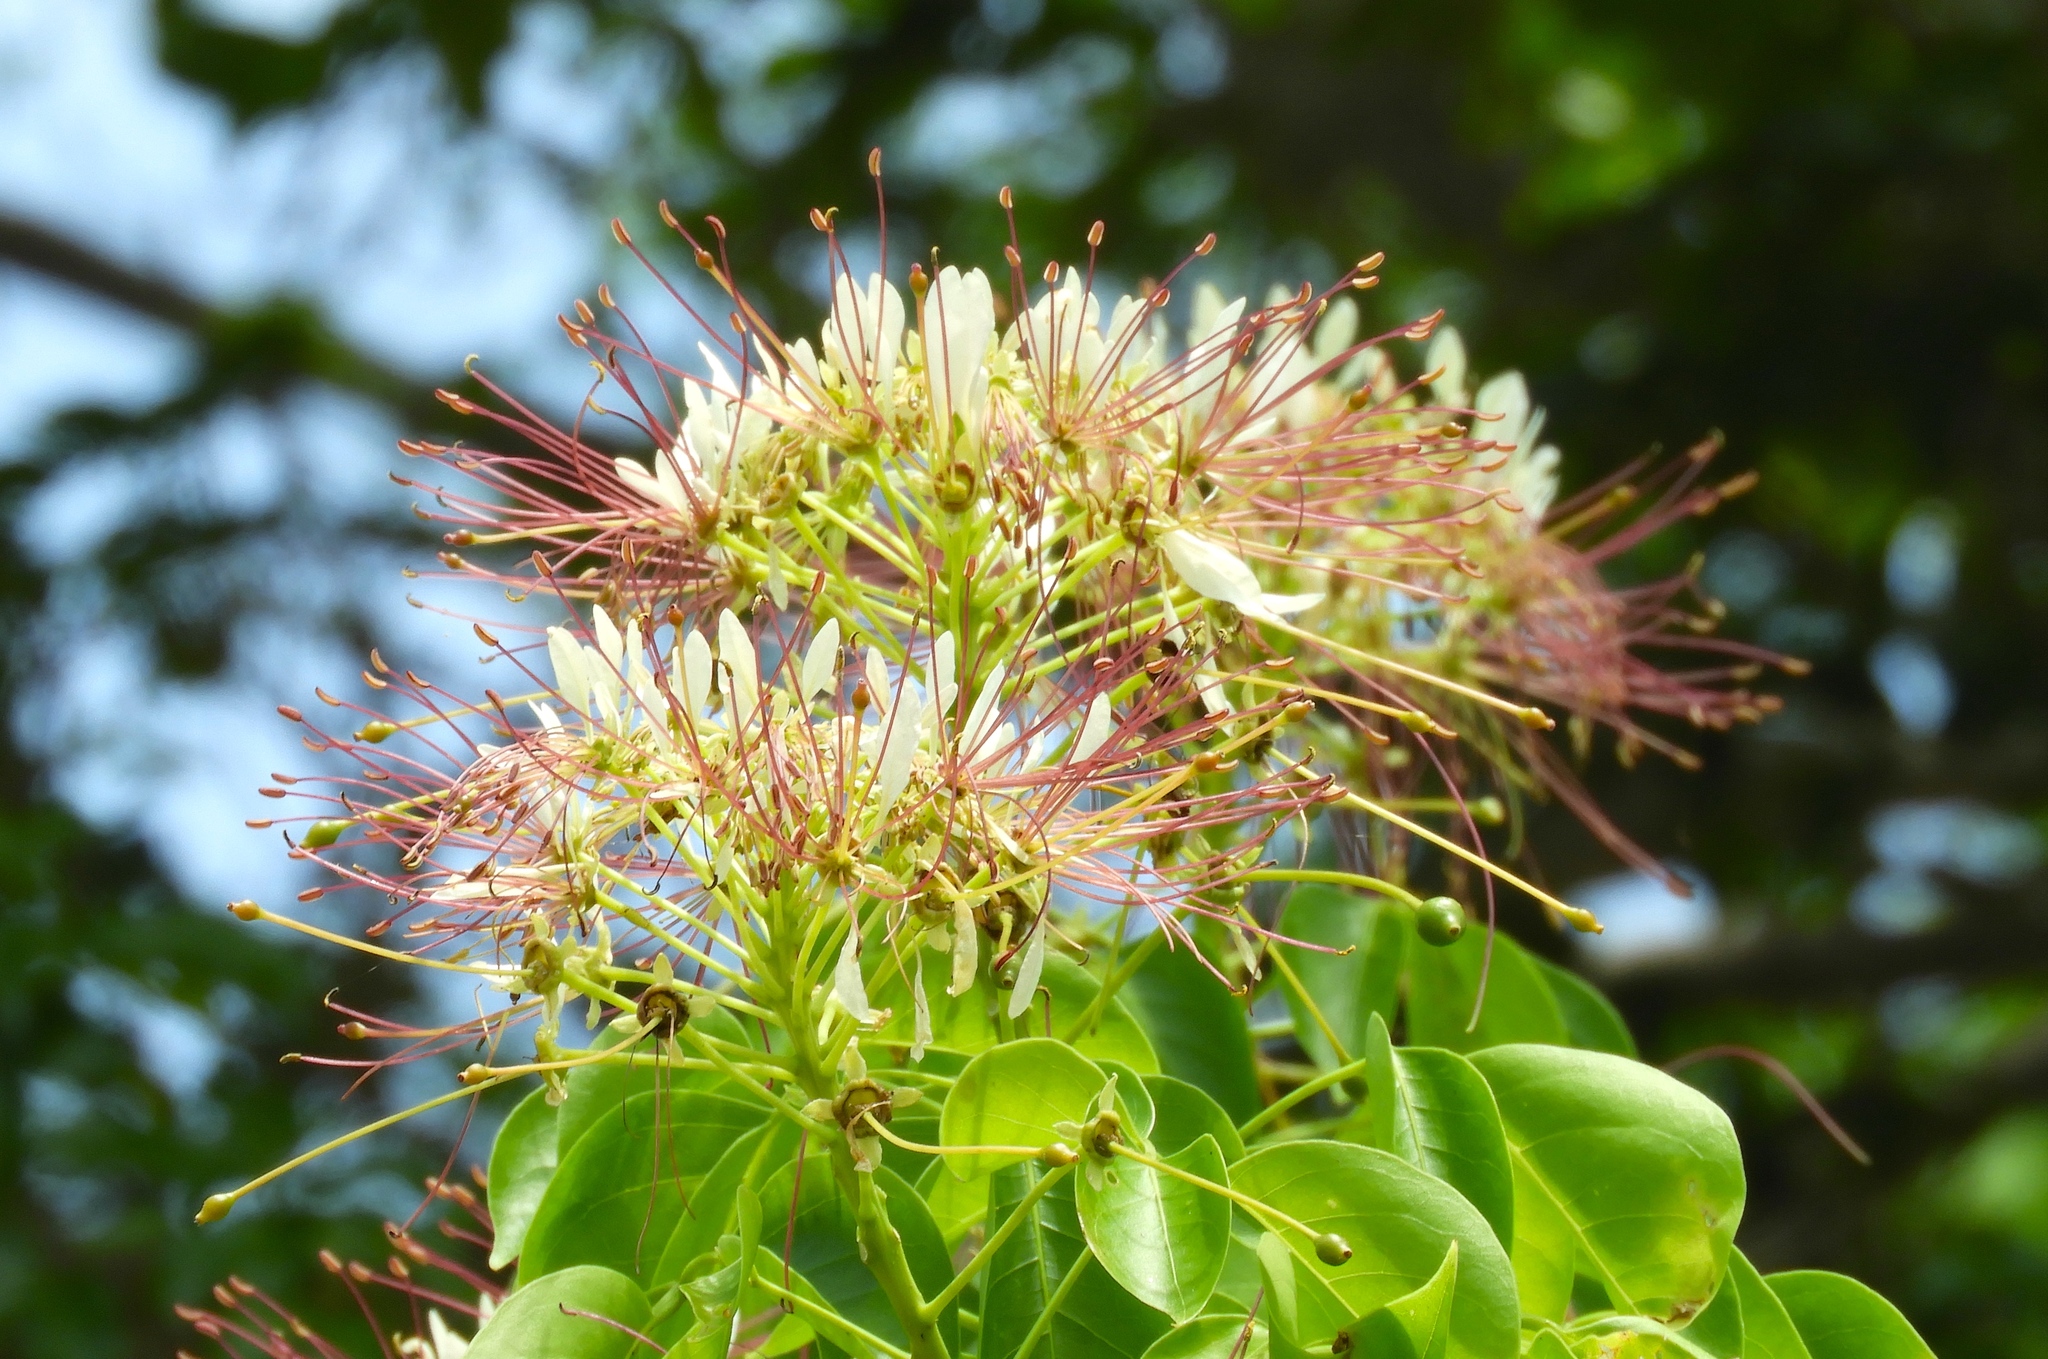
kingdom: Plantae
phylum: Tracheophyta
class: Magnoliopsida
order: Brassicales
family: Capparaceae
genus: Crateva
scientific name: Crateva tapia
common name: Garlic-pear
